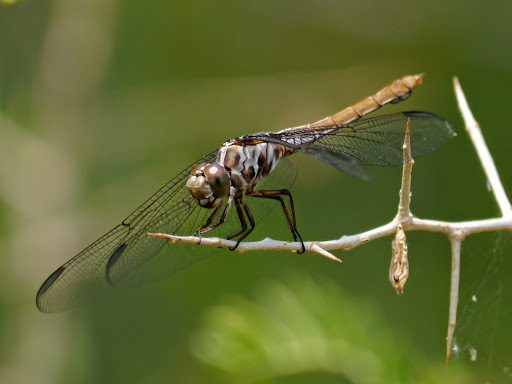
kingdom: Animalia
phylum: Arthropoda
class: Insecta
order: Odonata
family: Libellulidae
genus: Orthemis
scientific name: Orthemis ferruginea
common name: Roseate skimmer
